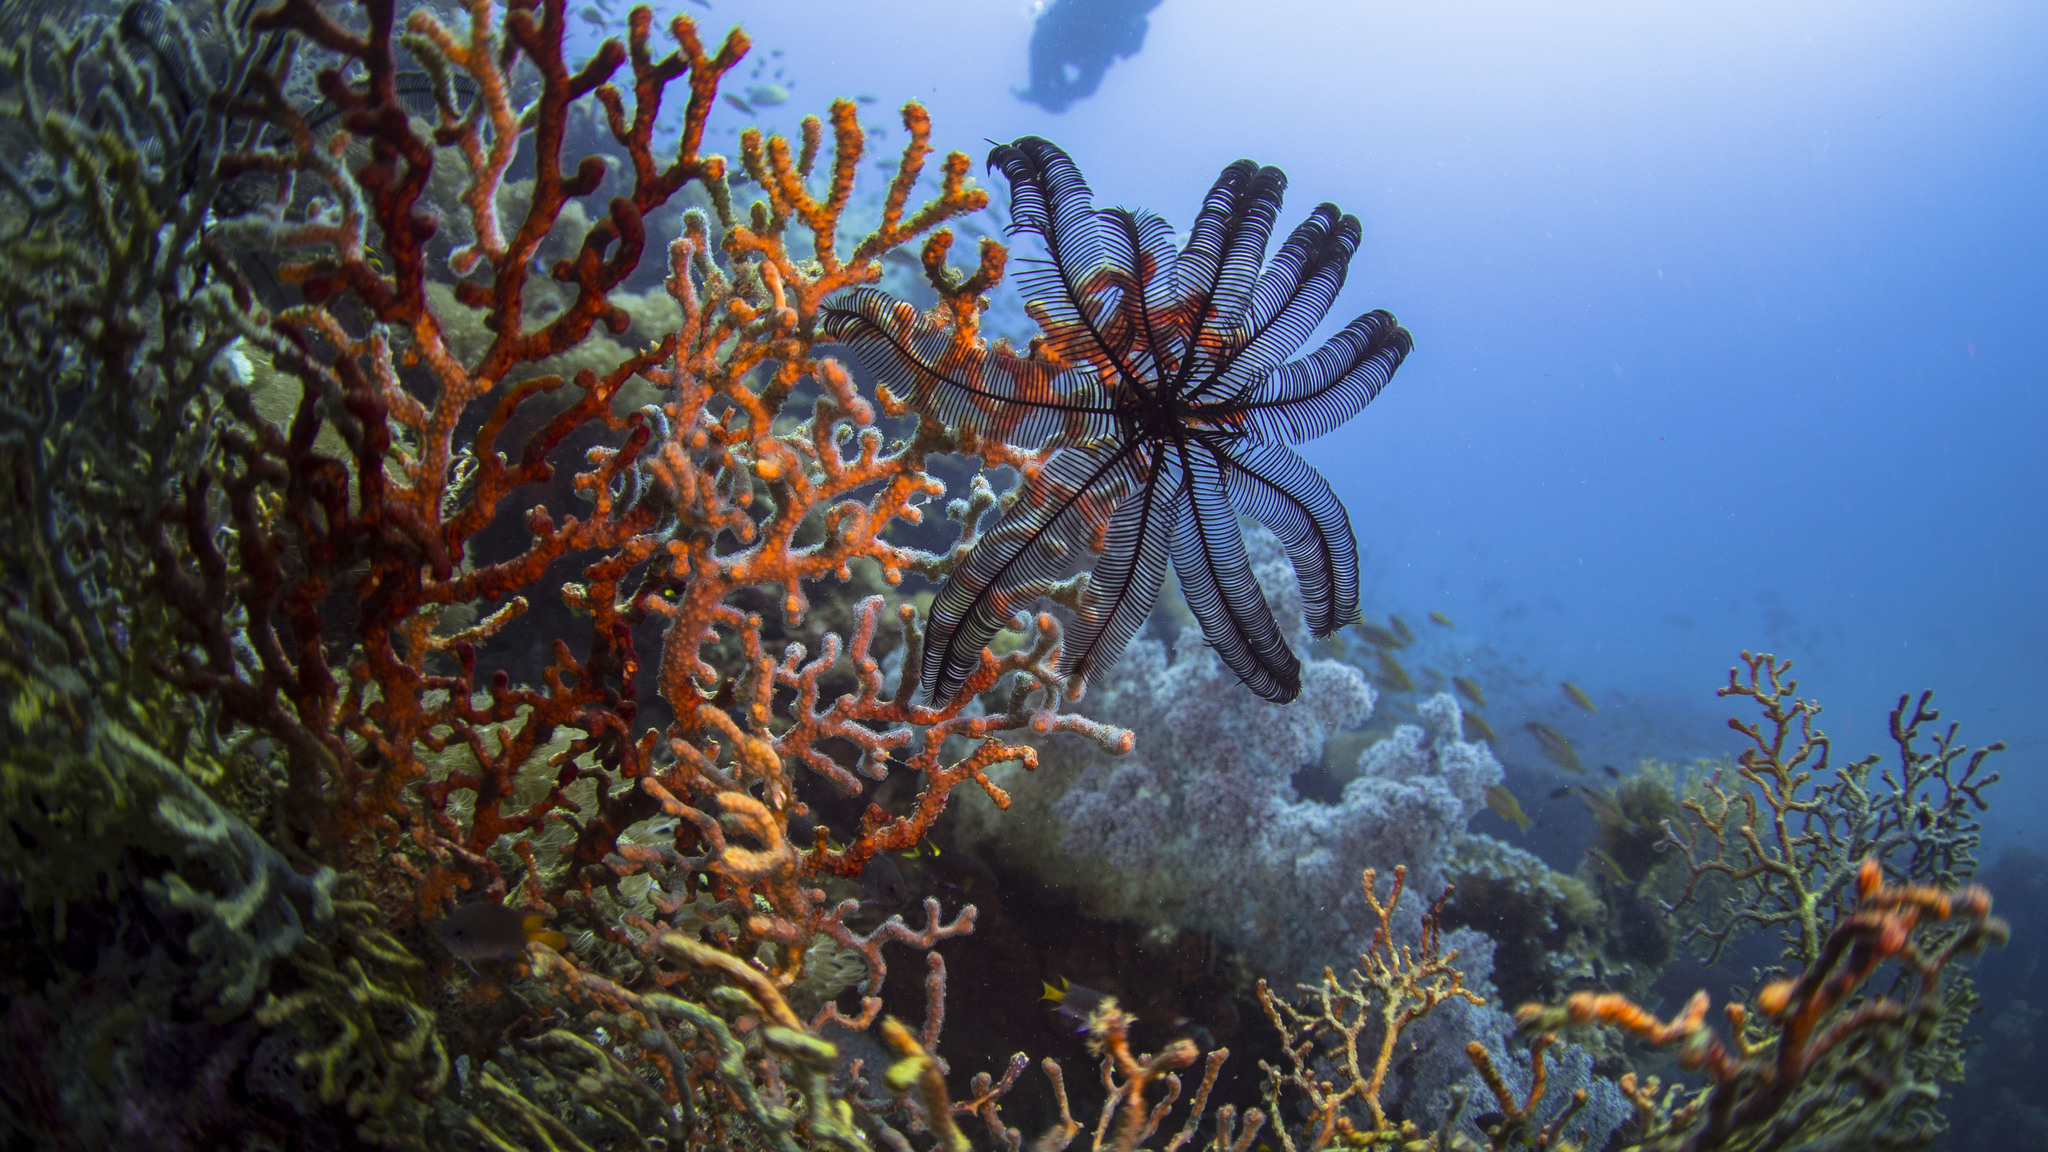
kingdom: Animalia
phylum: Echinodermata
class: Crinoidea
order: Comatulida
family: Colobometridae
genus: Colobometra
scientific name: Colobometra perspinosa
